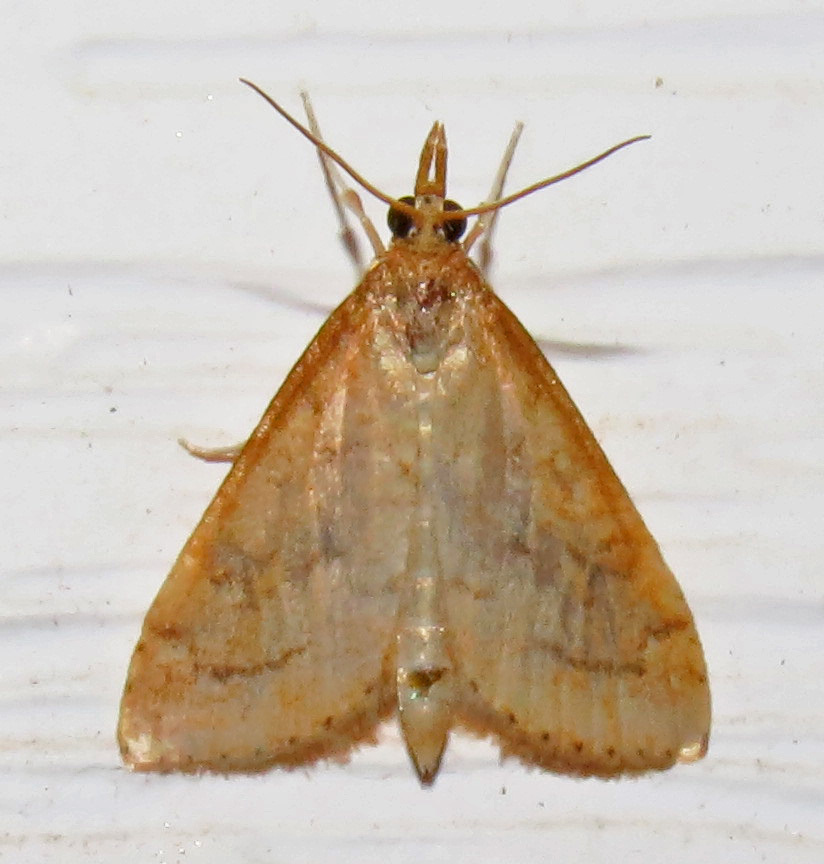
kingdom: Animalia
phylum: Arthropoda
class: Insecta
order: Lepidoptera
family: Crambidae
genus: Udea
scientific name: Udea rubigalis
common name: Celery leaftier moth
